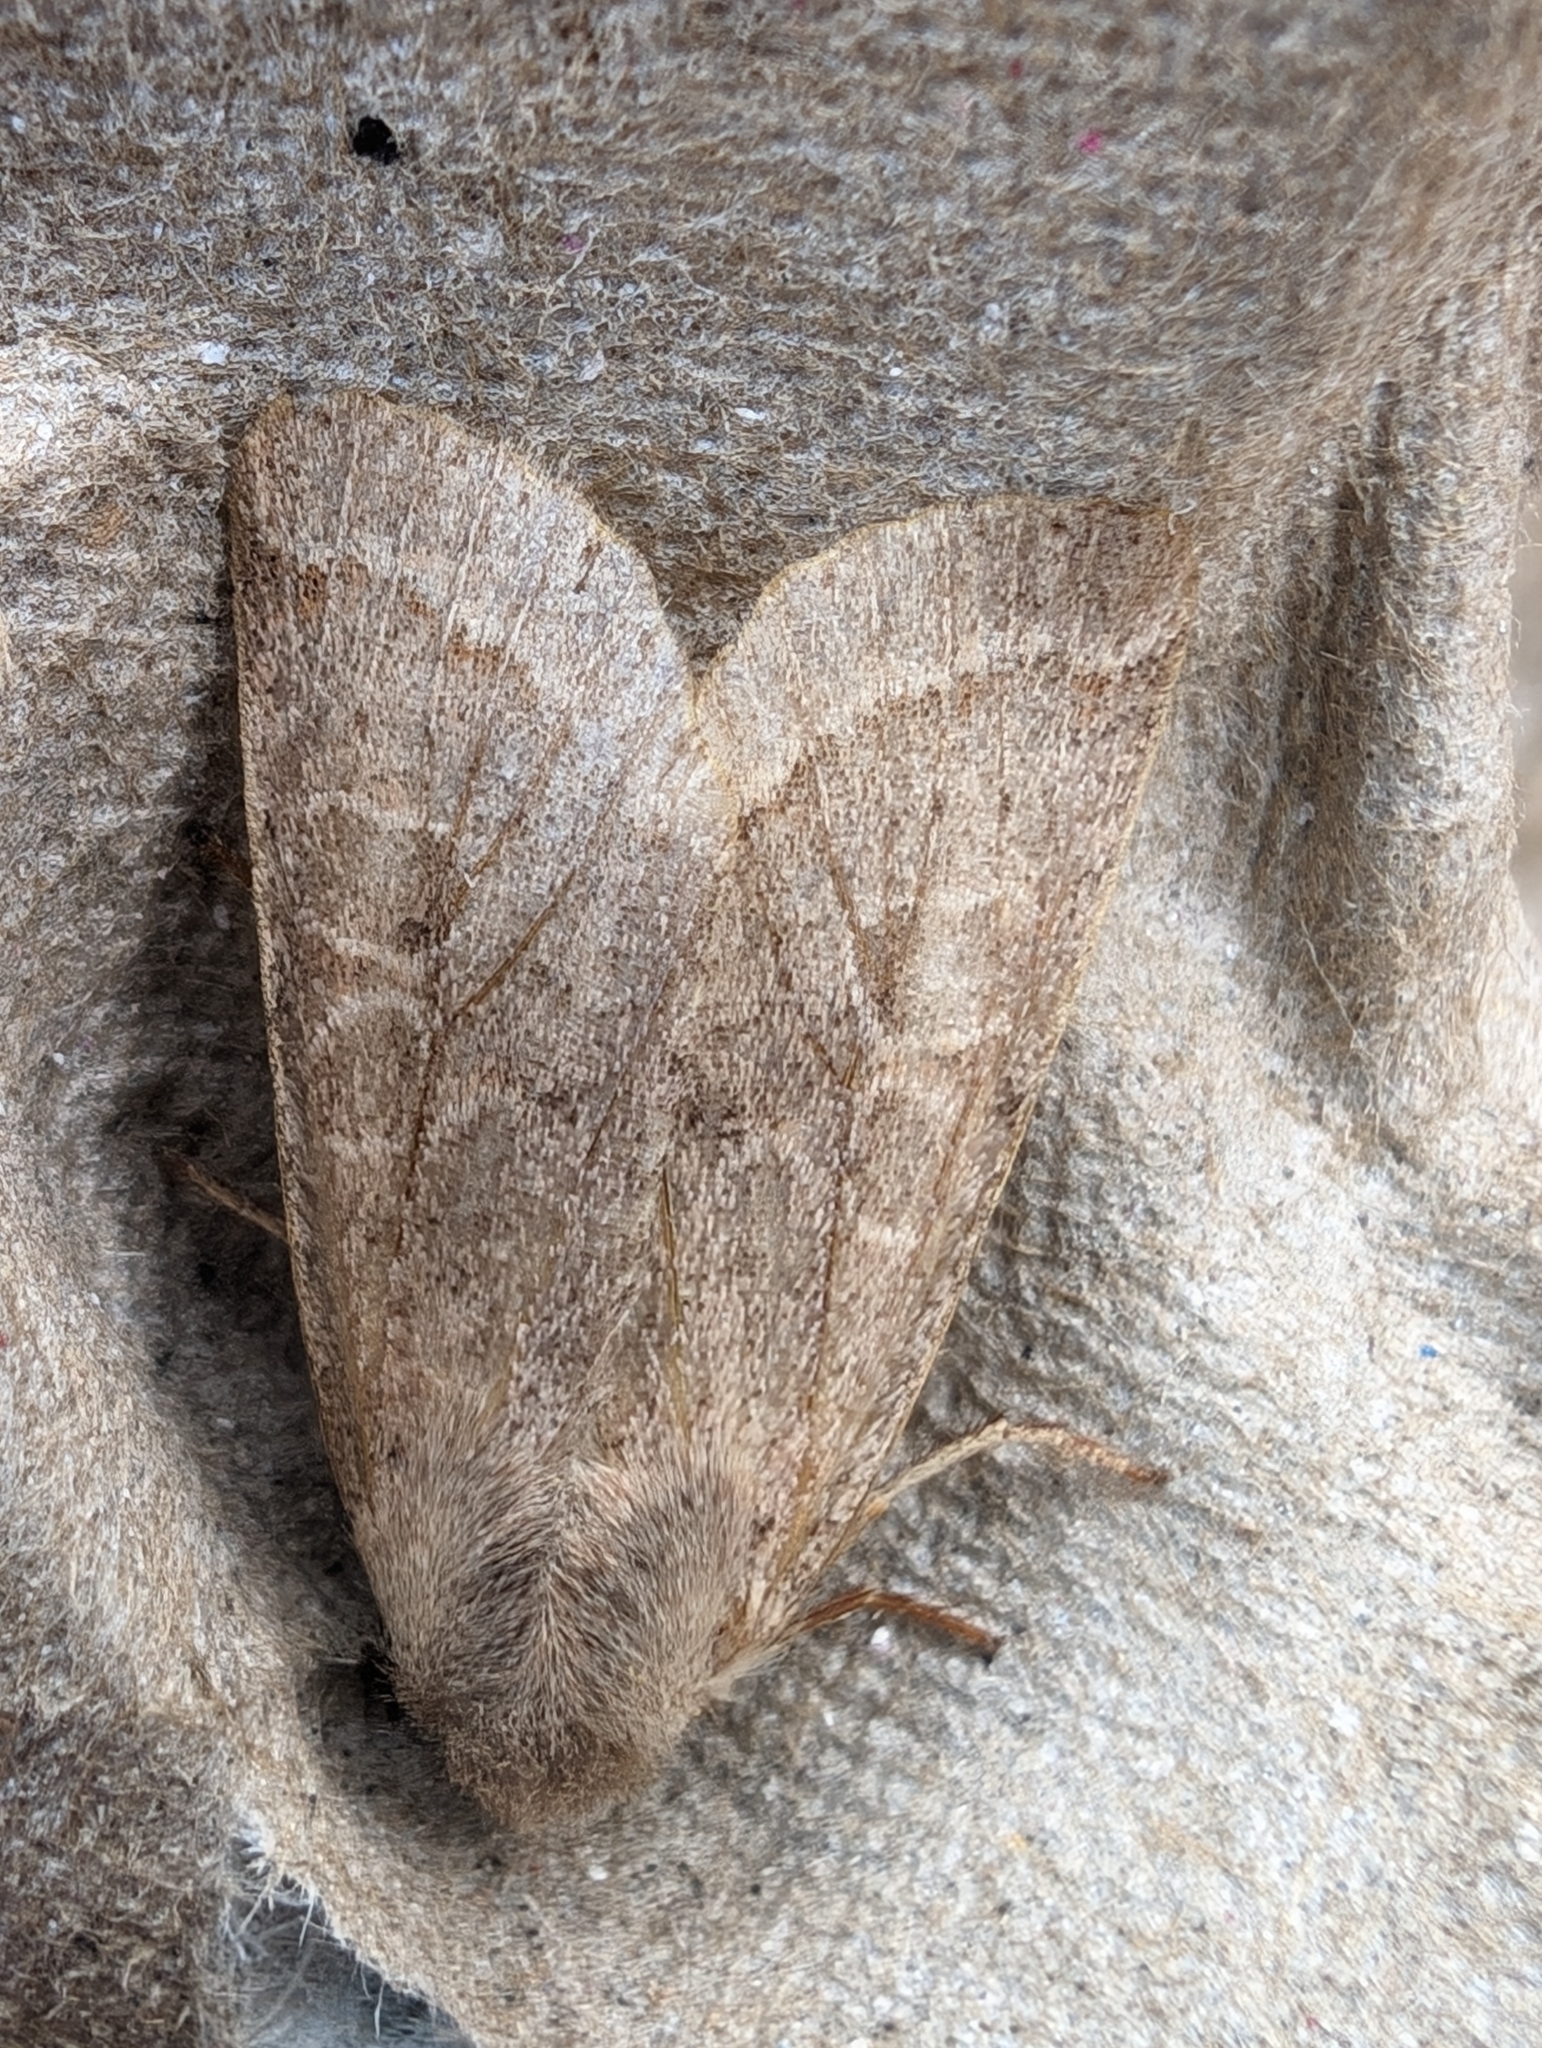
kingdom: Animalia
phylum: Arthropoda
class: Insecta
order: Lepidoptera
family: Noctuidae
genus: Orthosia
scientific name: Orthosia cerasi
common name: Common quaker
